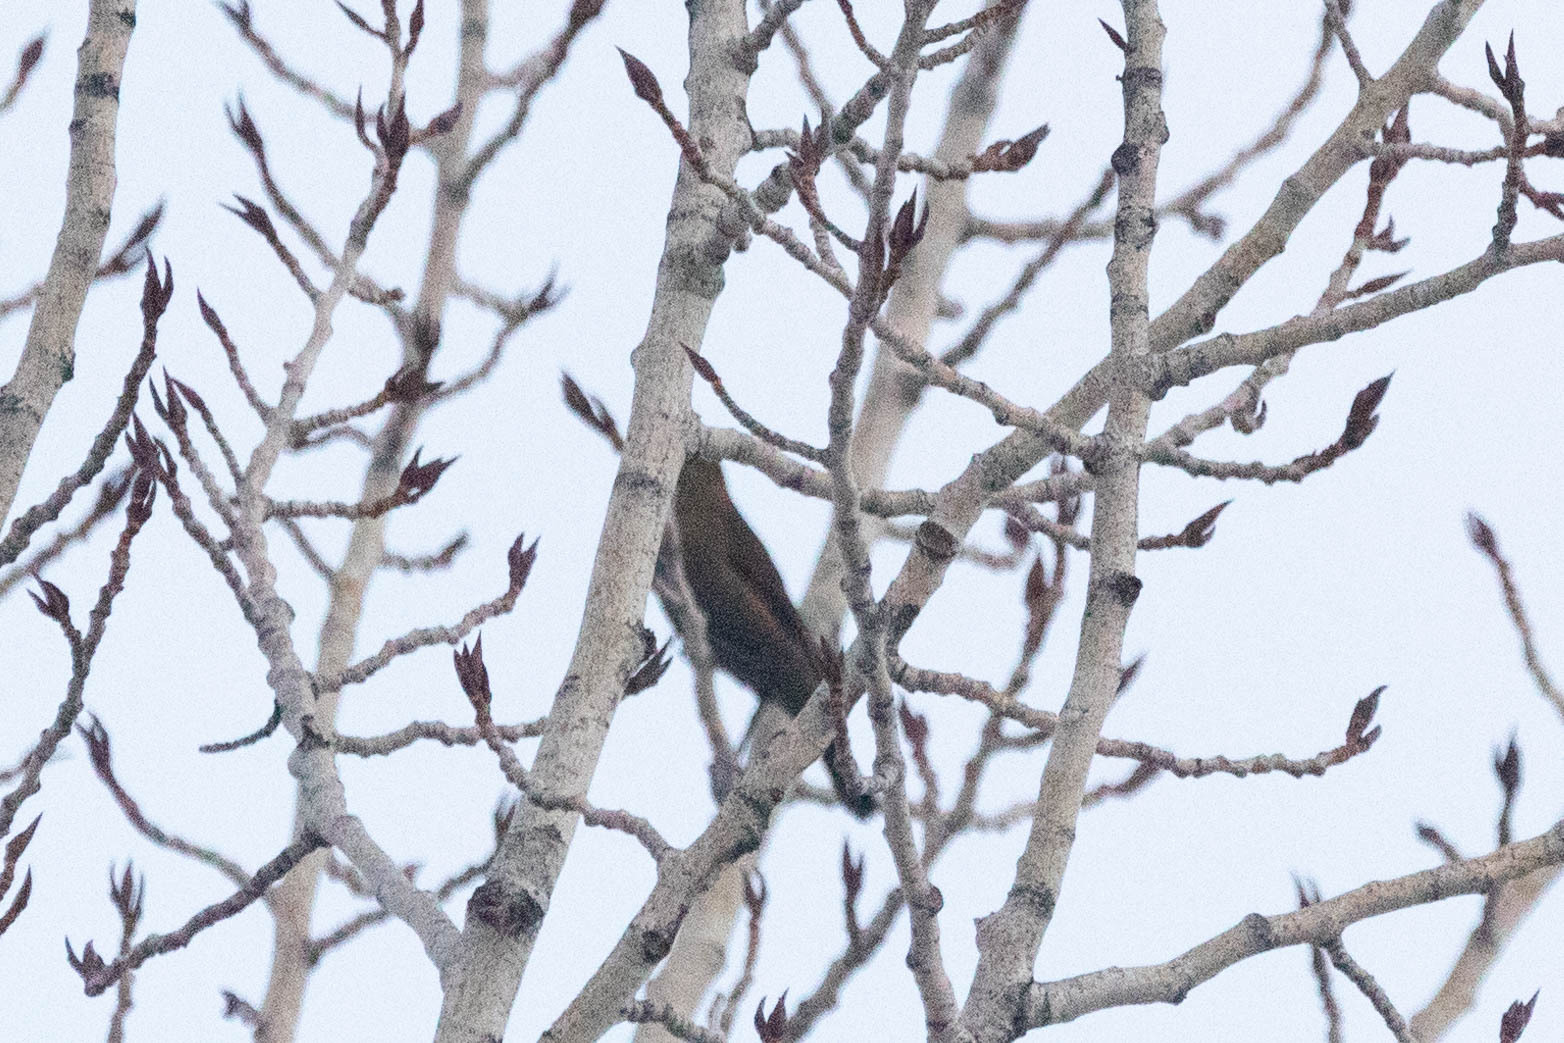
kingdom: Animalia
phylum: Chordata
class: Aves
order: Passeriformes
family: Icteridae
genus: Euphagus
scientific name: Euphagus carolinus
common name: Rusty blackbird
